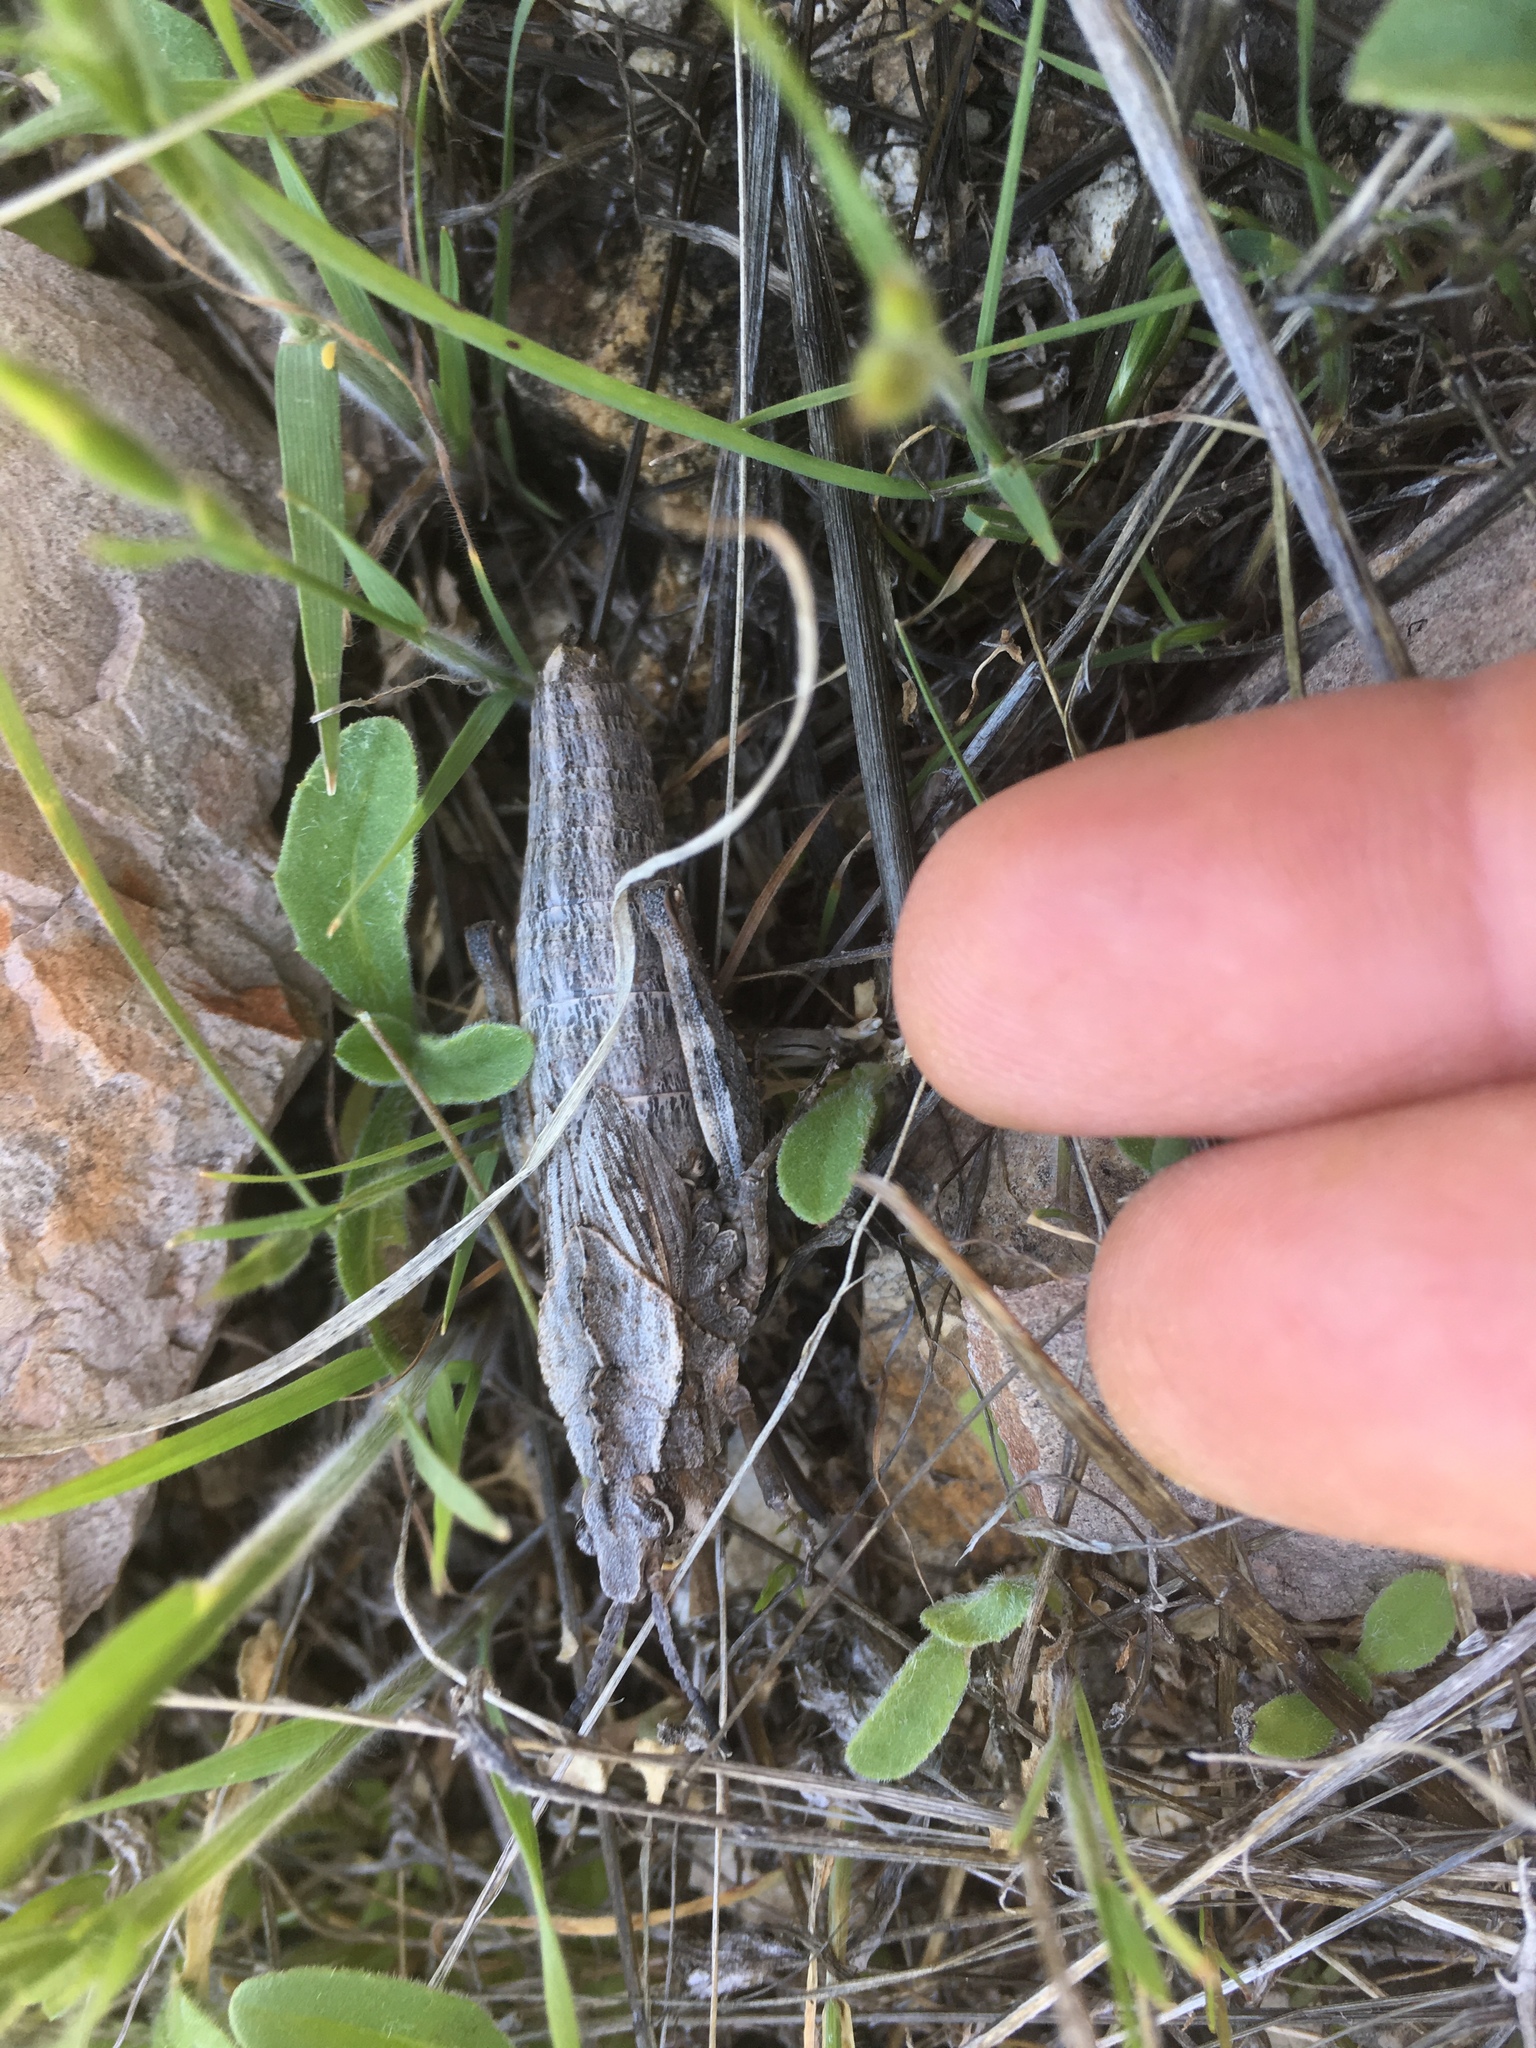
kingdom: Animalia
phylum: Arthropoda
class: Insecta
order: Orthoptera
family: Romaleidae
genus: Dracotettix
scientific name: Dracotettix monstrosus
